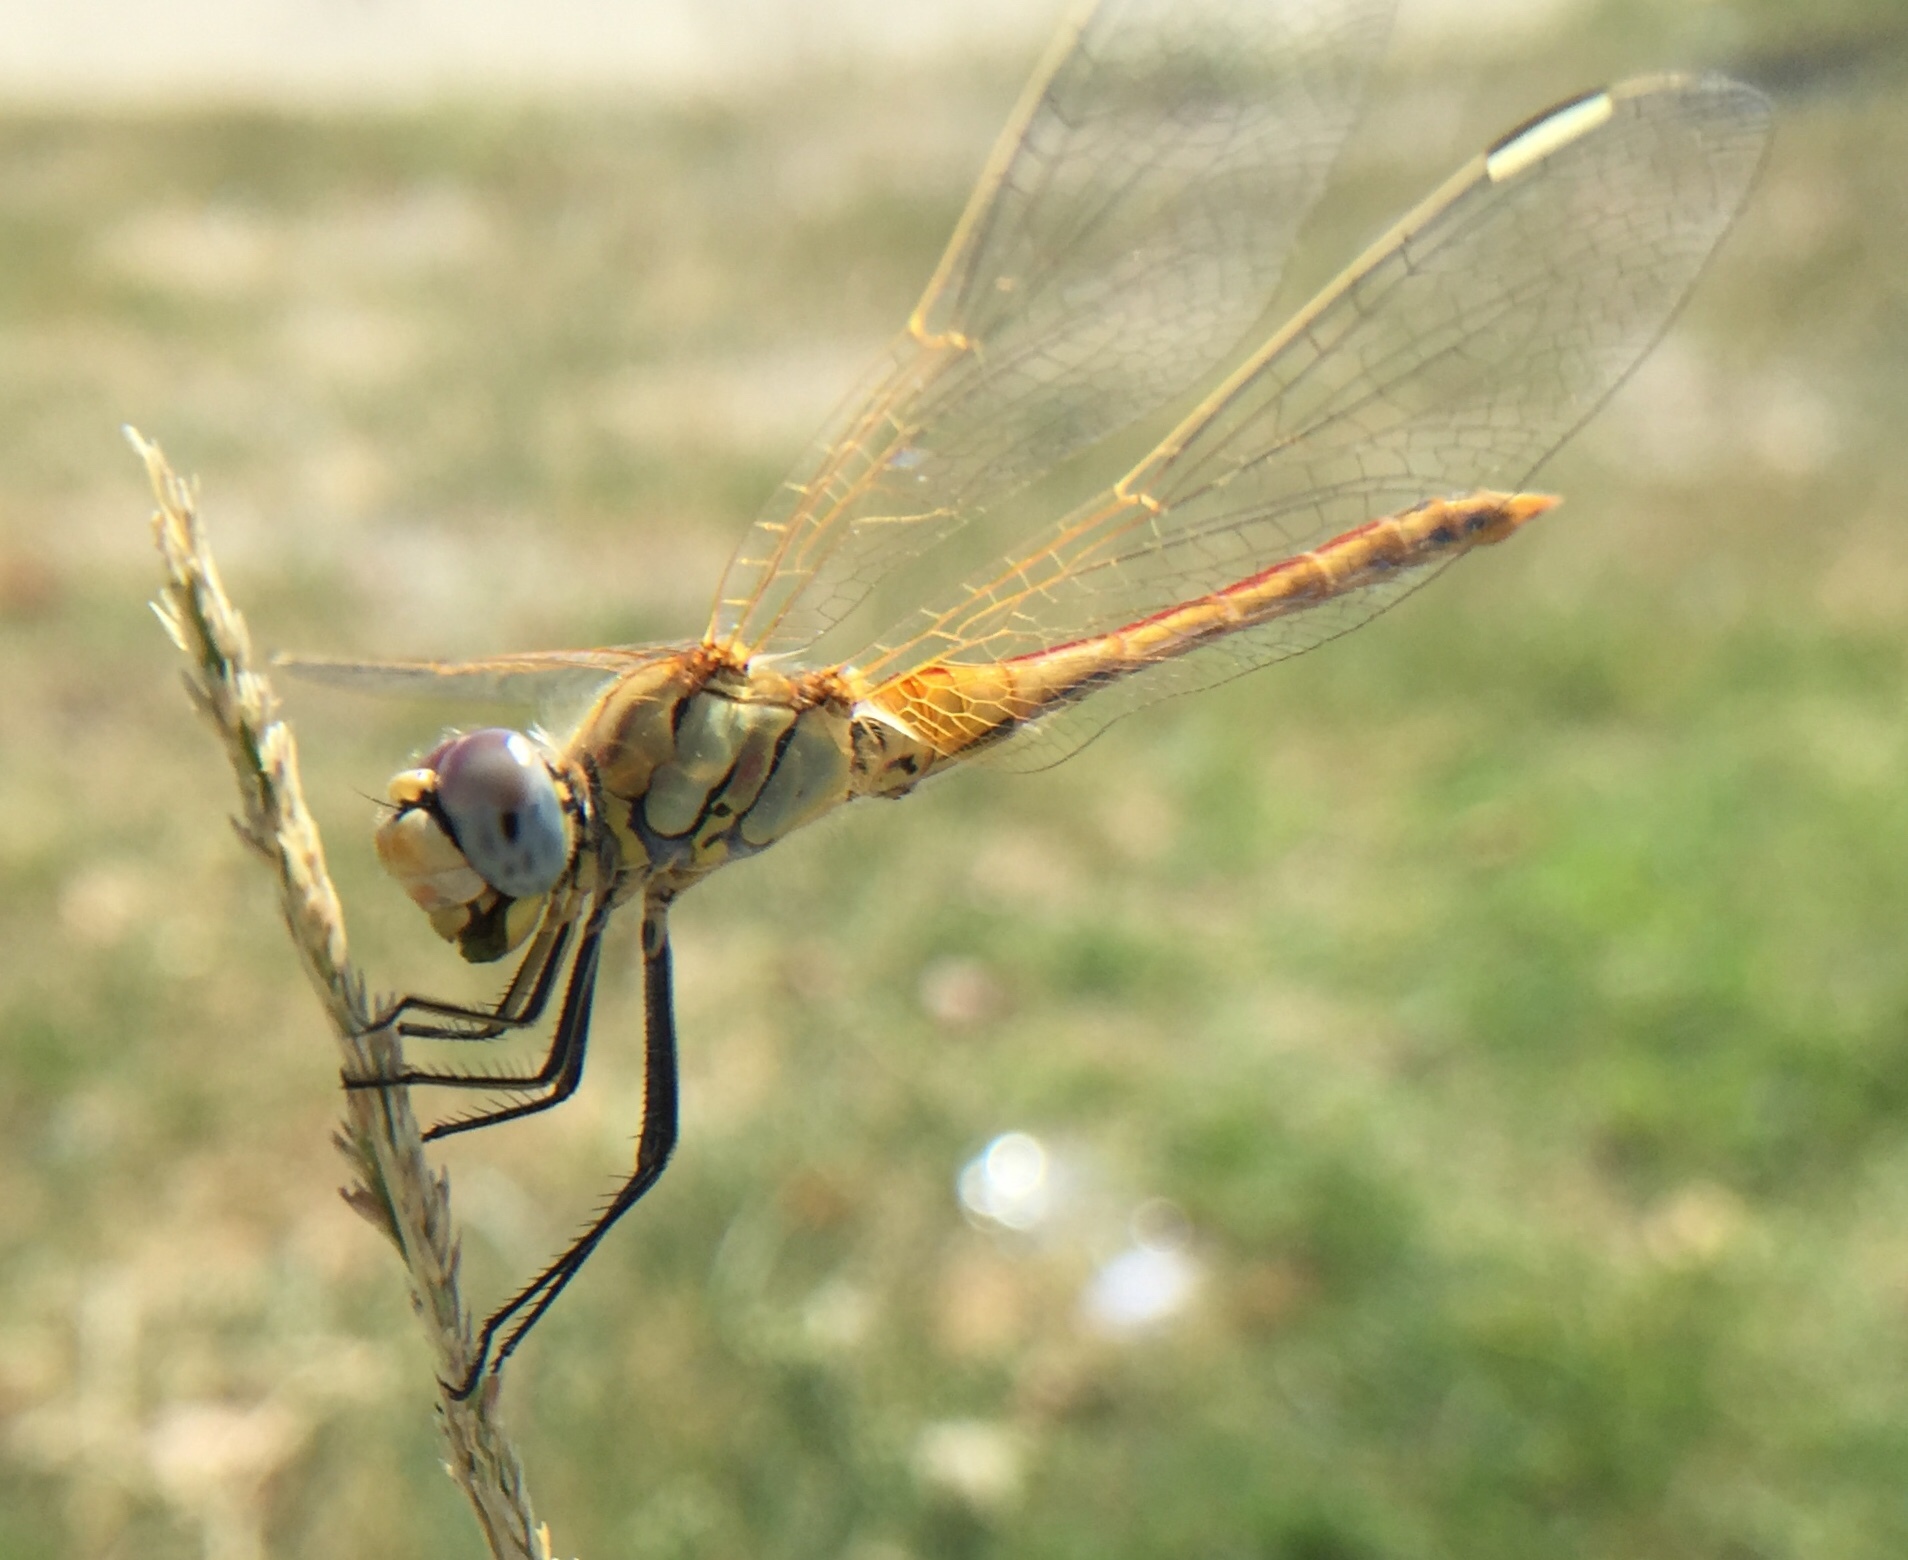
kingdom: Animalia
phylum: Arthropoda
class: Insecta
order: Odonata
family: Libellulidae
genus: Sympetrum
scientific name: Sympetrum fonscolombii
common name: Red-veined darter
